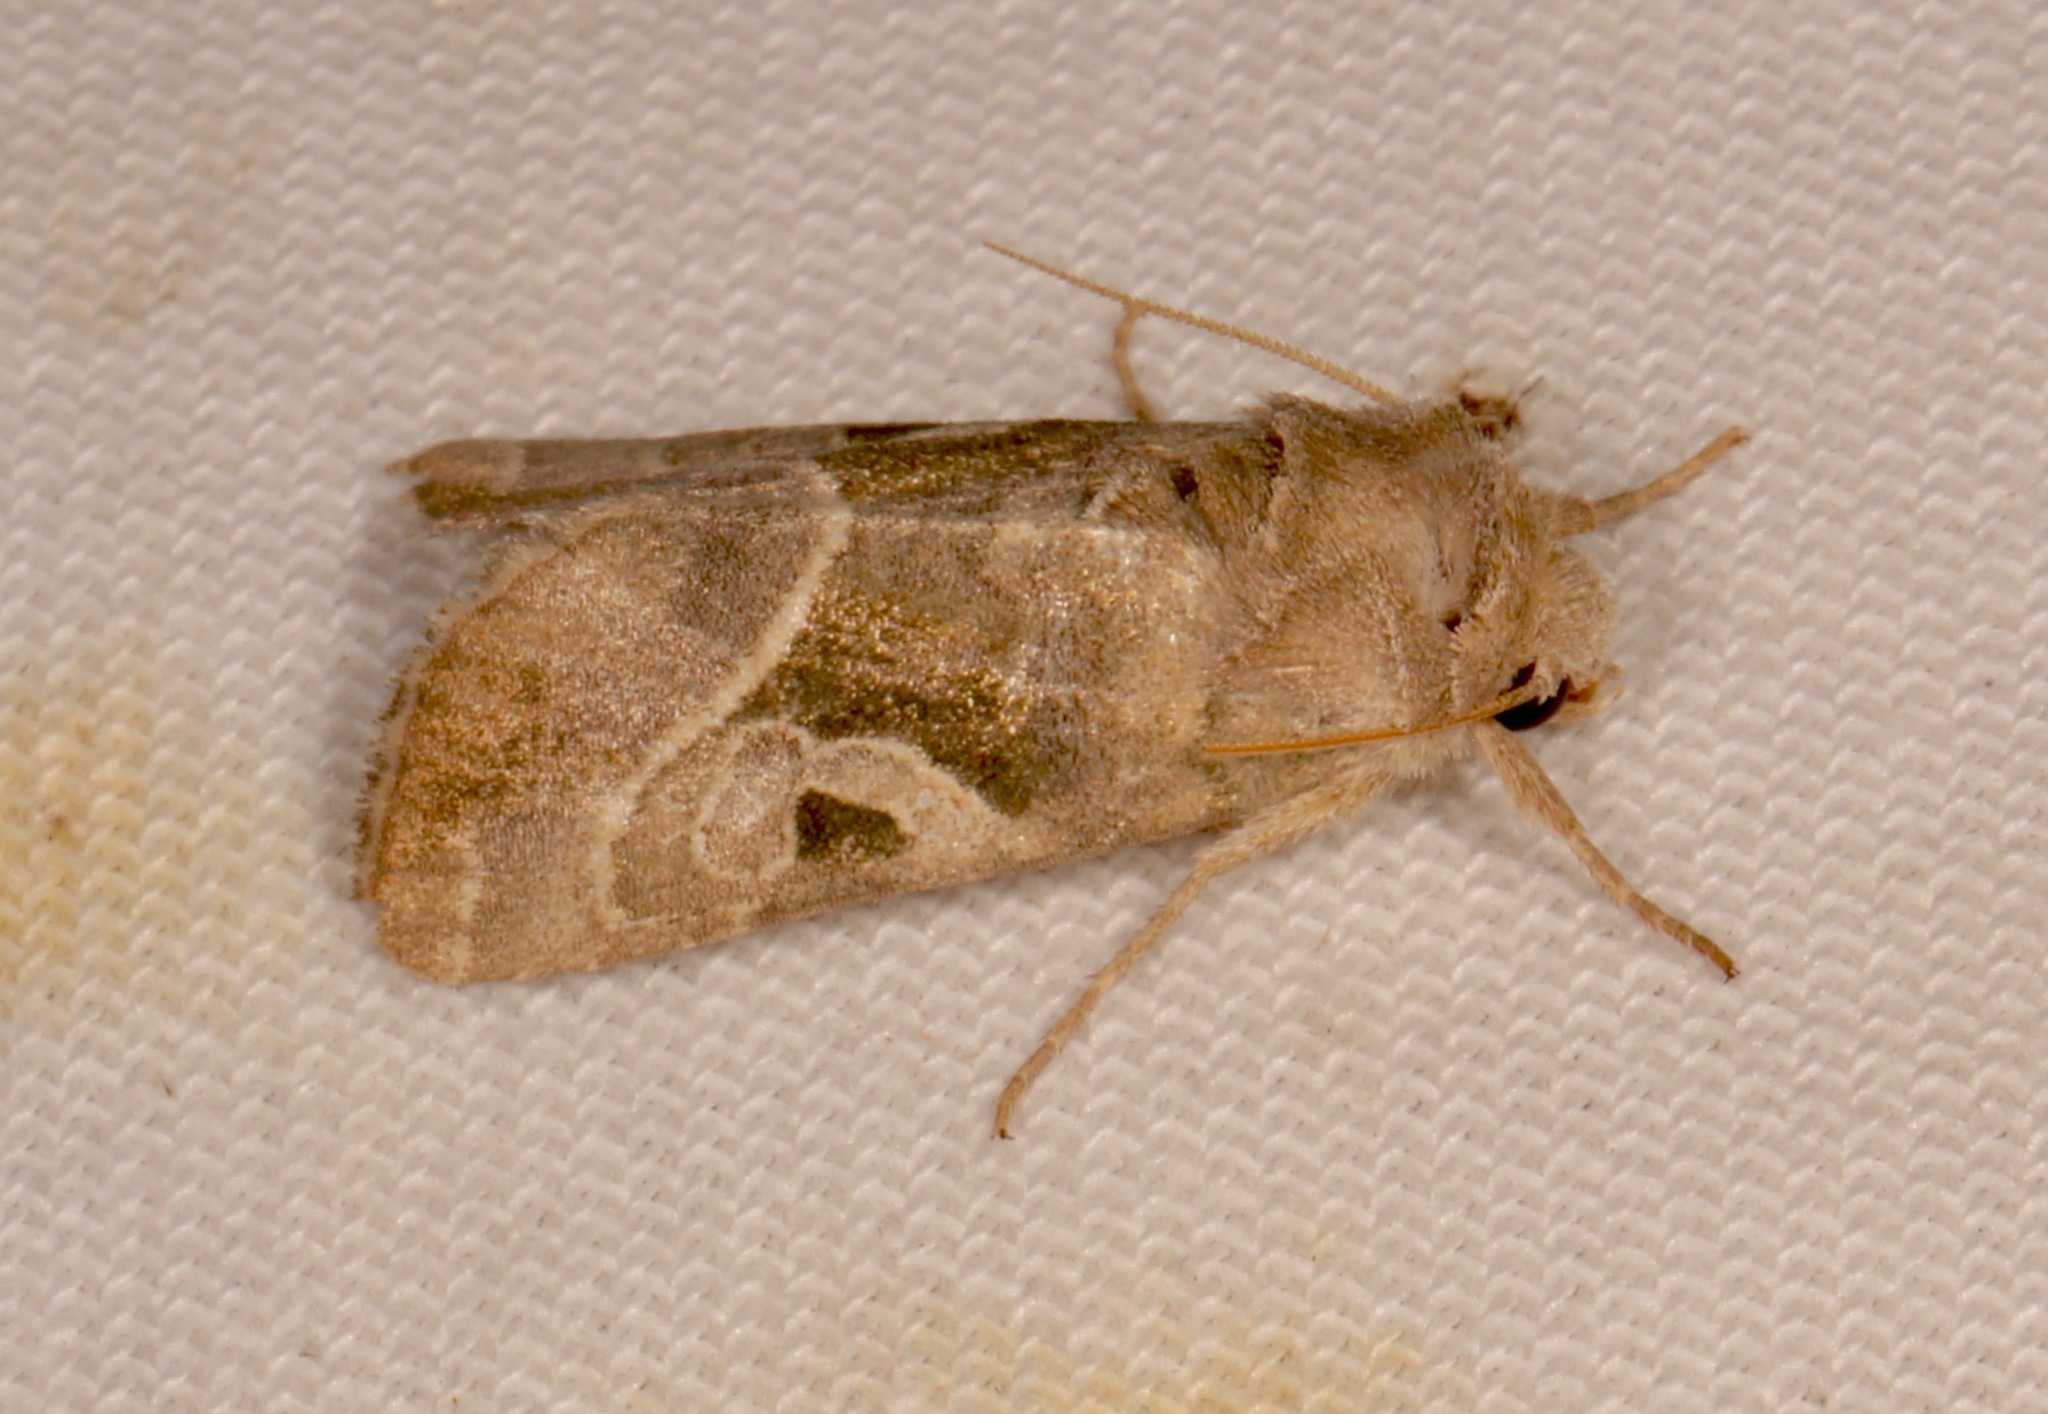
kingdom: Animalia
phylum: Arthropoda
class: Insecta
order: Lepidoptera
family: Noctuidae
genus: Hexorthodes
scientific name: Hexorthodes accurata
